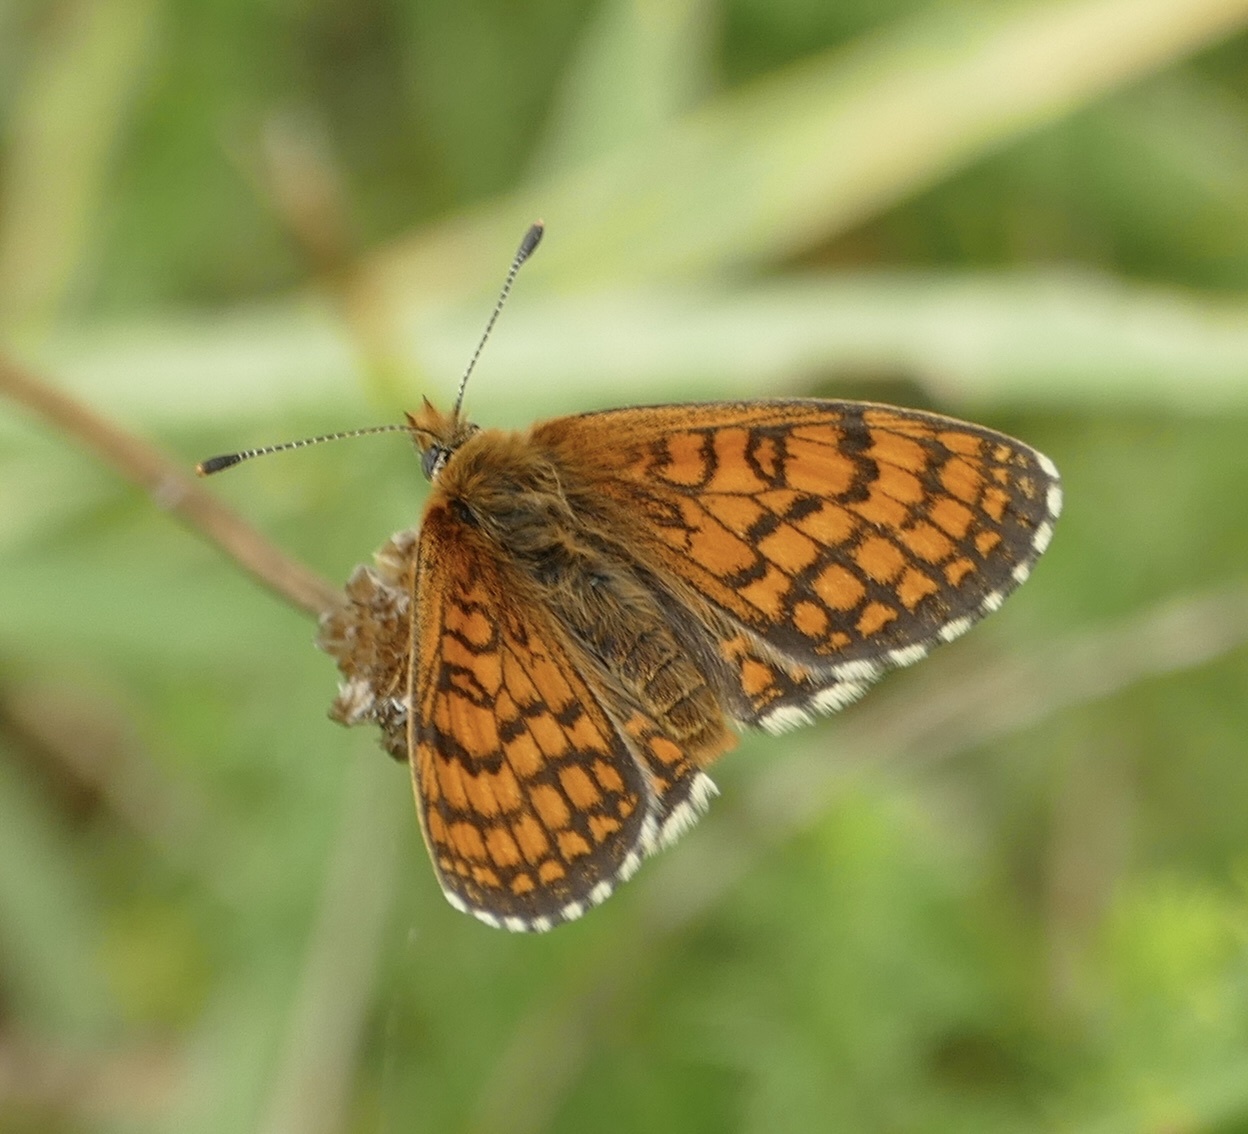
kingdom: Animalia
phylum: Arthropoda
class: Insecta
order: Lepidoptera
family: Nymphalidae
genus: Mellicta
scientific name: Mellicta parthenoides
